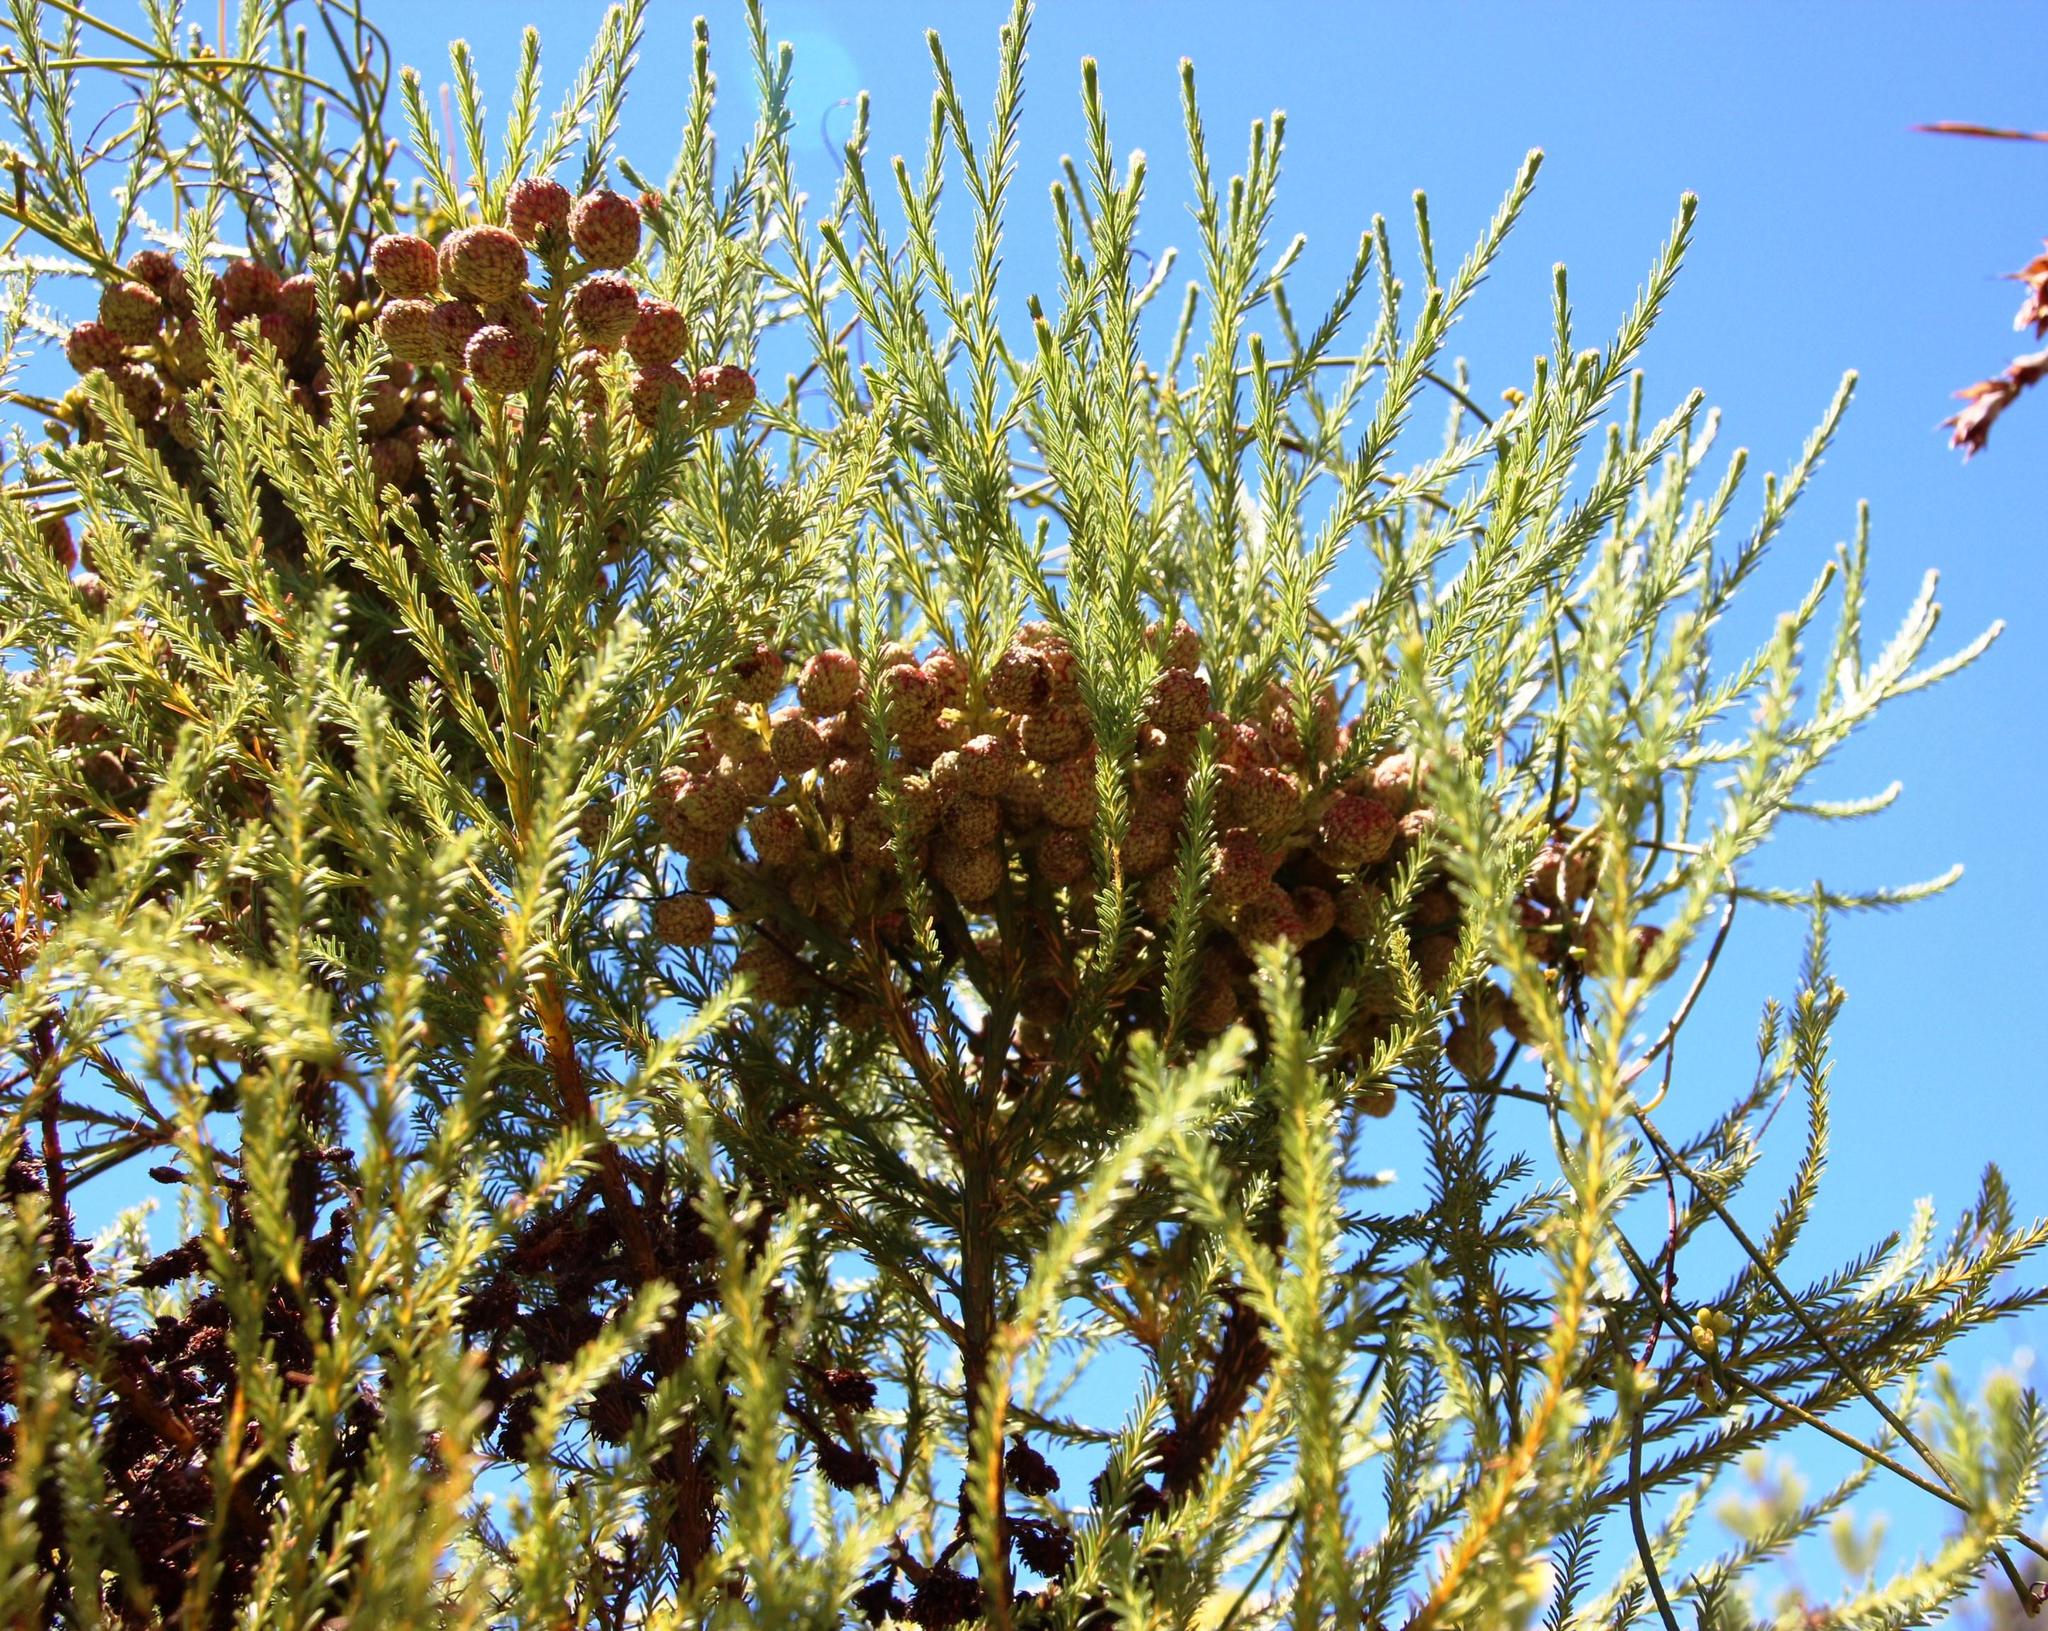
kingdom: Plantae
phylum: Tracheophyta
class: Magnoliopsida
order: Bruniales
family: Bruniaceae
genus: Berzelia
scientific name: Berzelia lanuginosa
